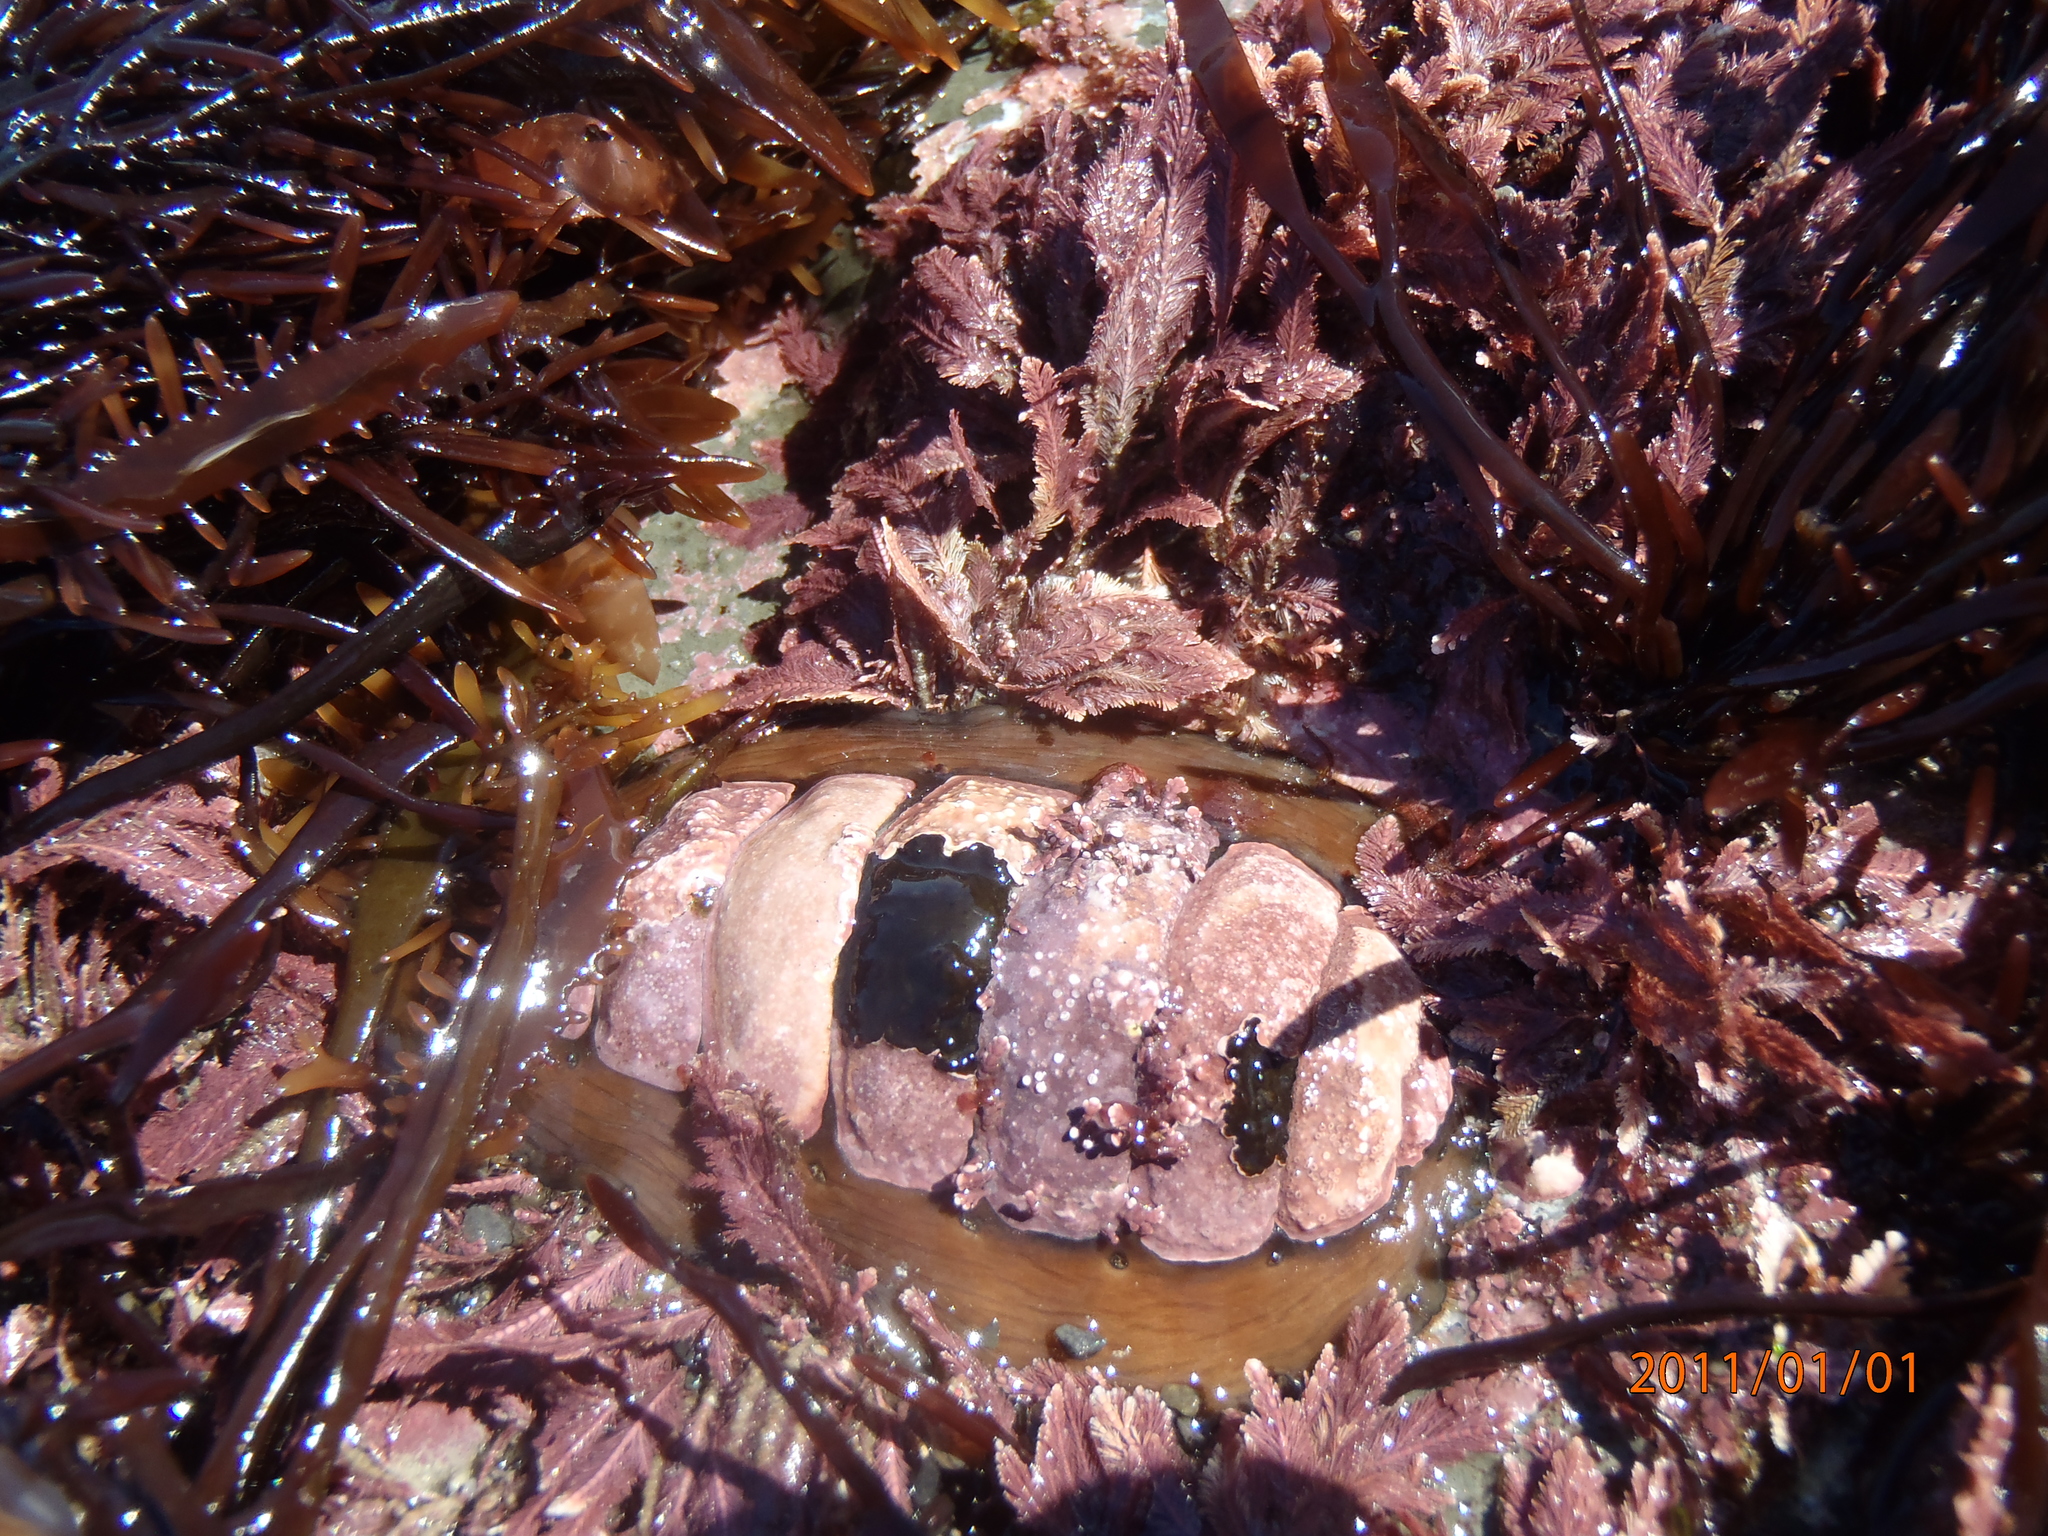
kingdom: Animalia
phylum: Mollusca
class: Polyplacophora
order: Chitonida
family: Mopaliidae
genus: Plaxiphora
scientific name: Plaxiphora biramosa
